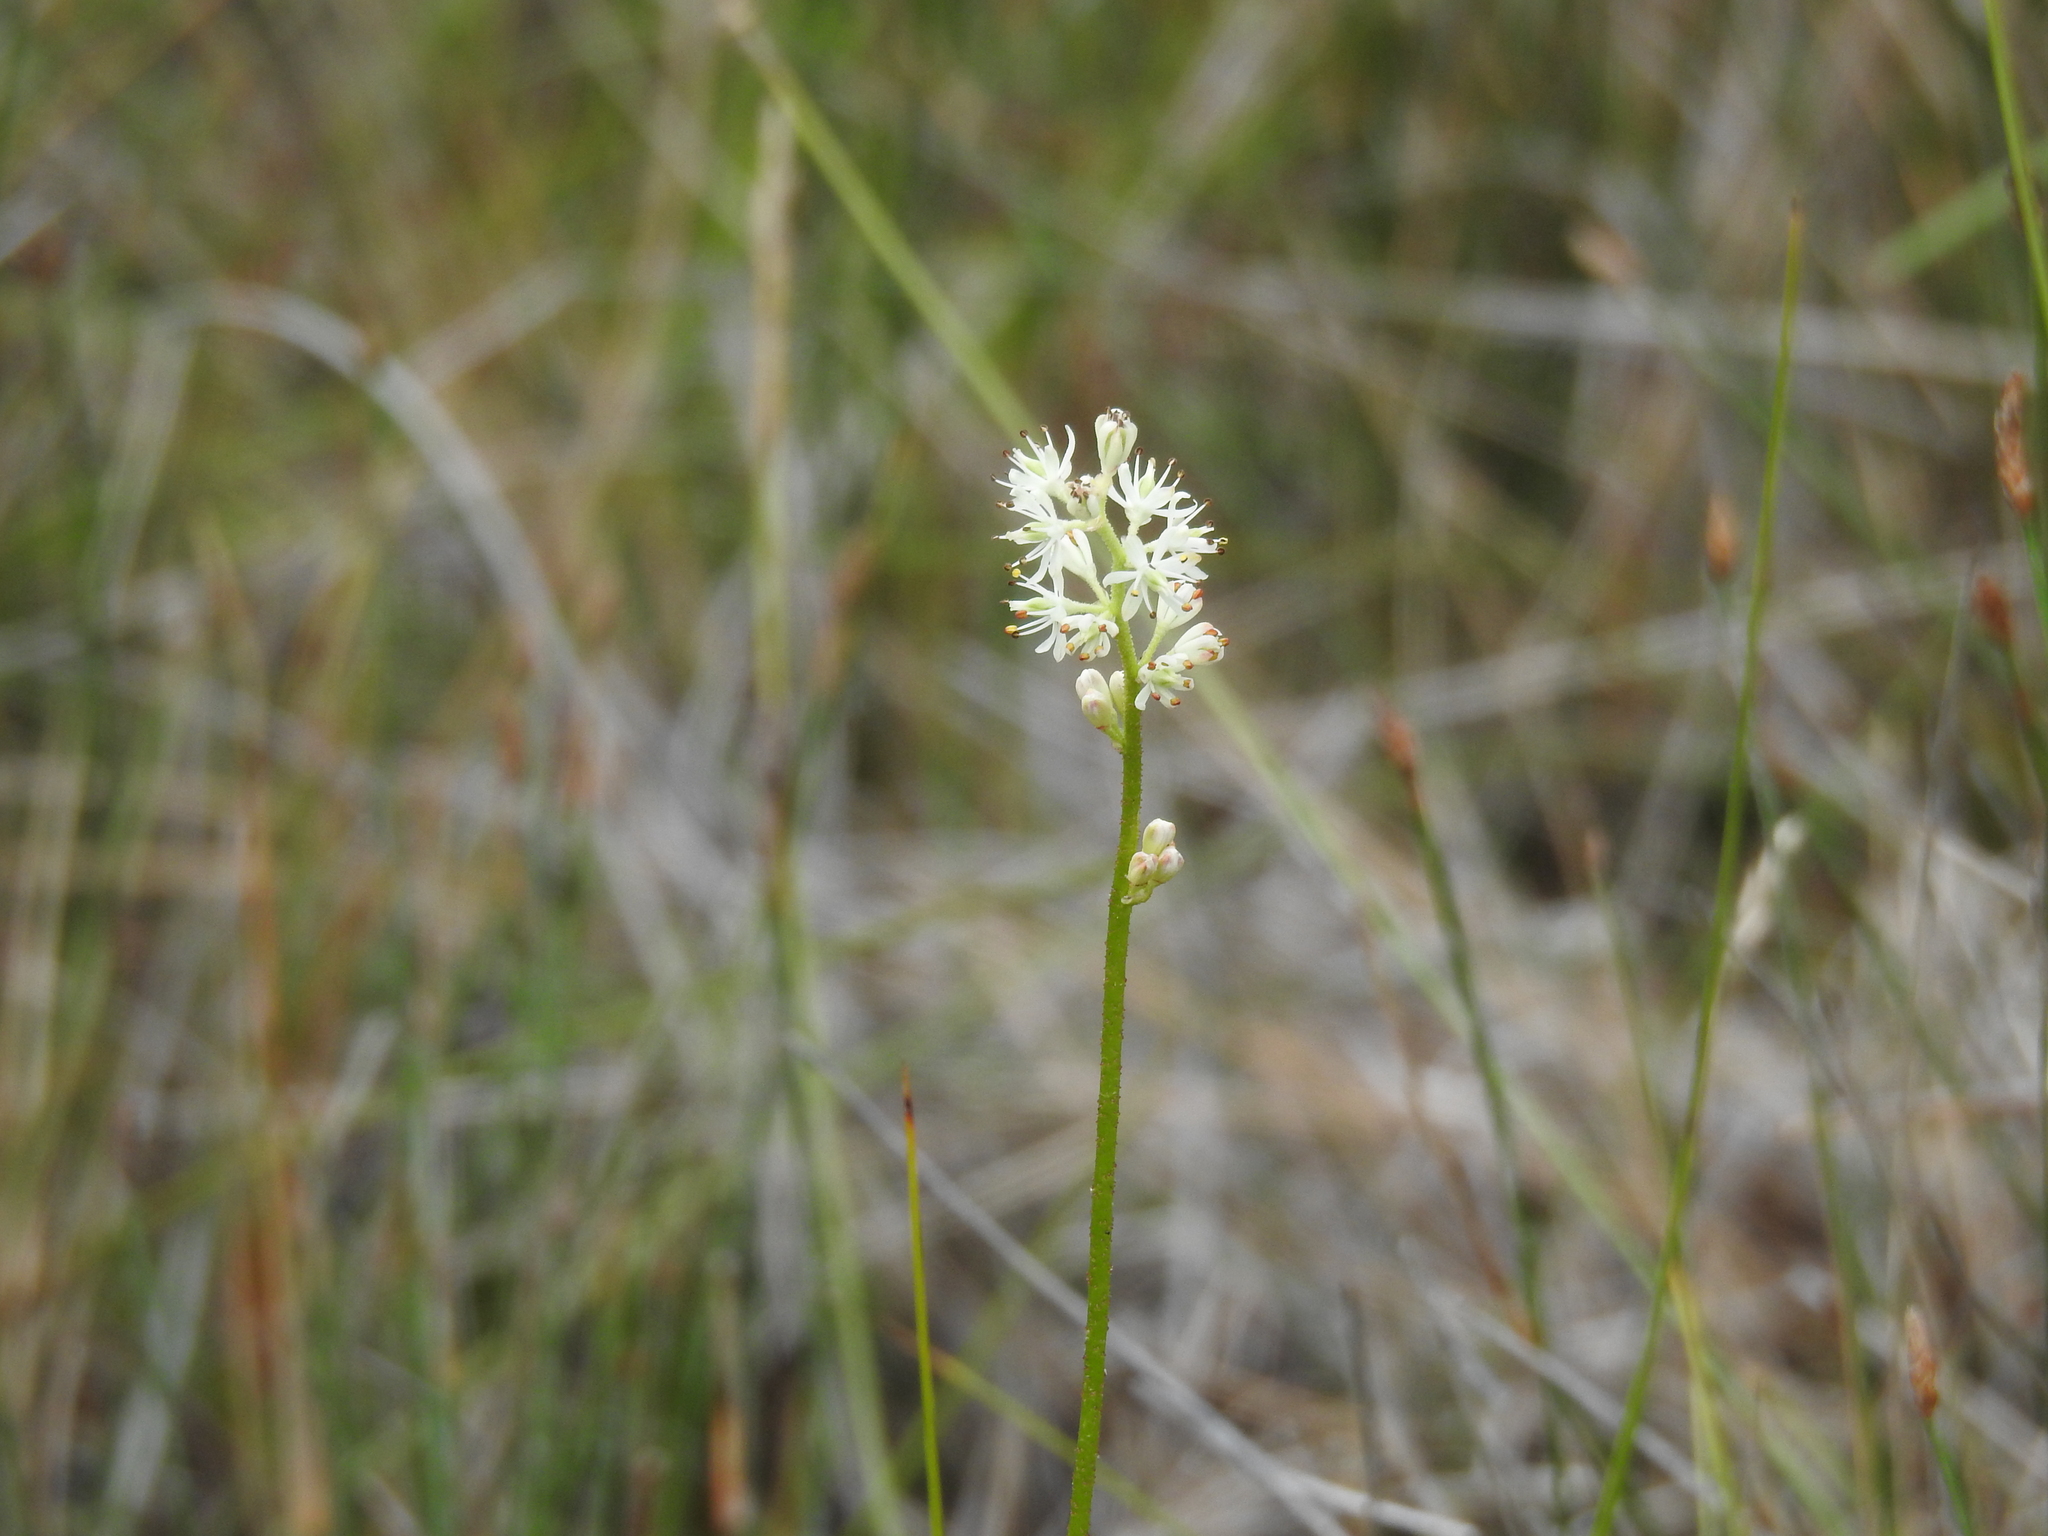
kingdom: Plantae
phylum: Tracheophyta
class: Liliopsida
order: Alismatales
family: Tofieldiaceae
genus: Triantha
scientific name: Triantha glutinosa
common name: Glutinous tofieldia
